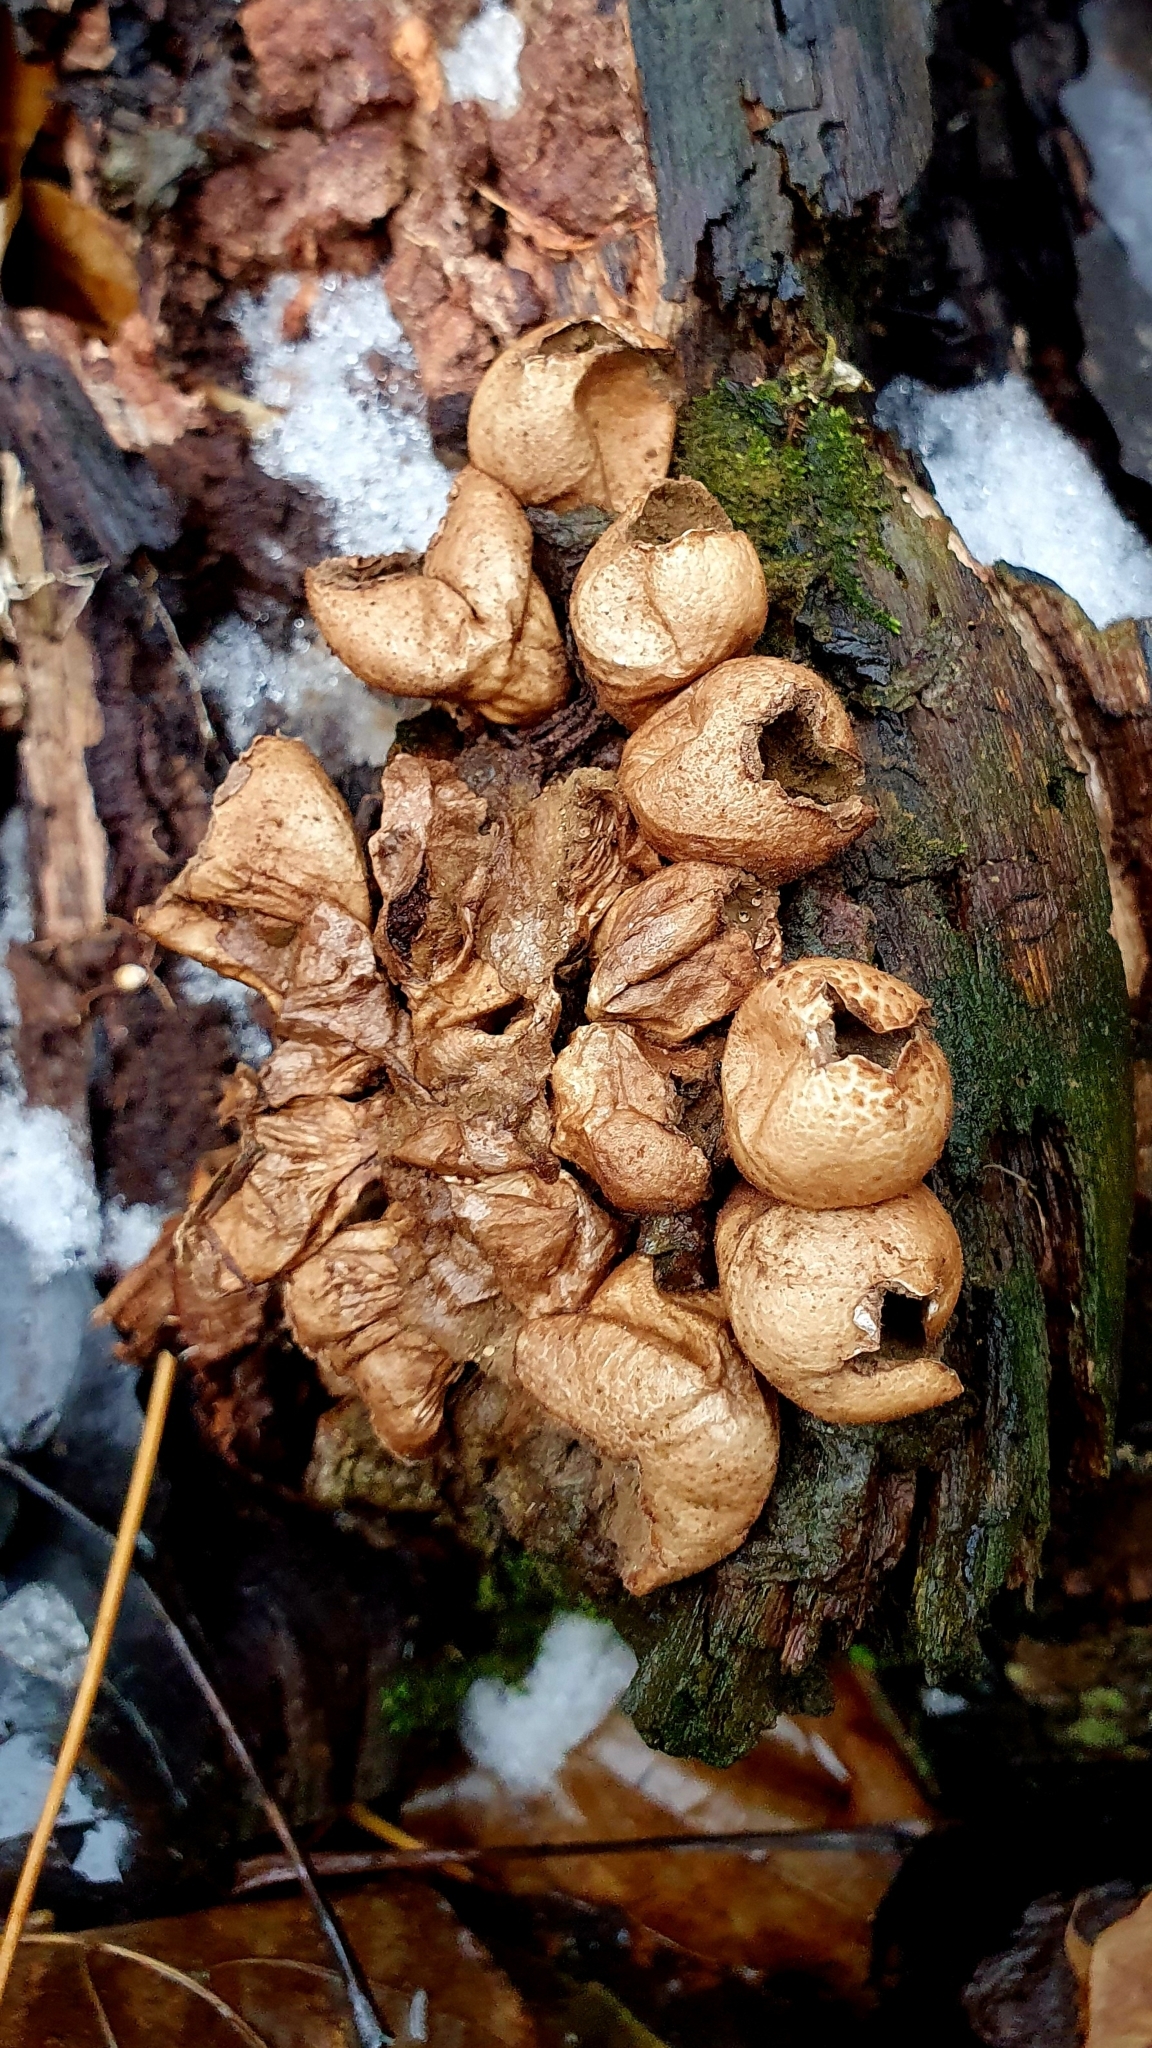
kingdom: Fungi
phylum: Basidiomycota
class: Agaricomycetes
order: Agaricales
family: Lycoperdaceae
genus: Apioperdon
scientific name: Apioperdon pyriforme
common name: Pear-shaped puffball
